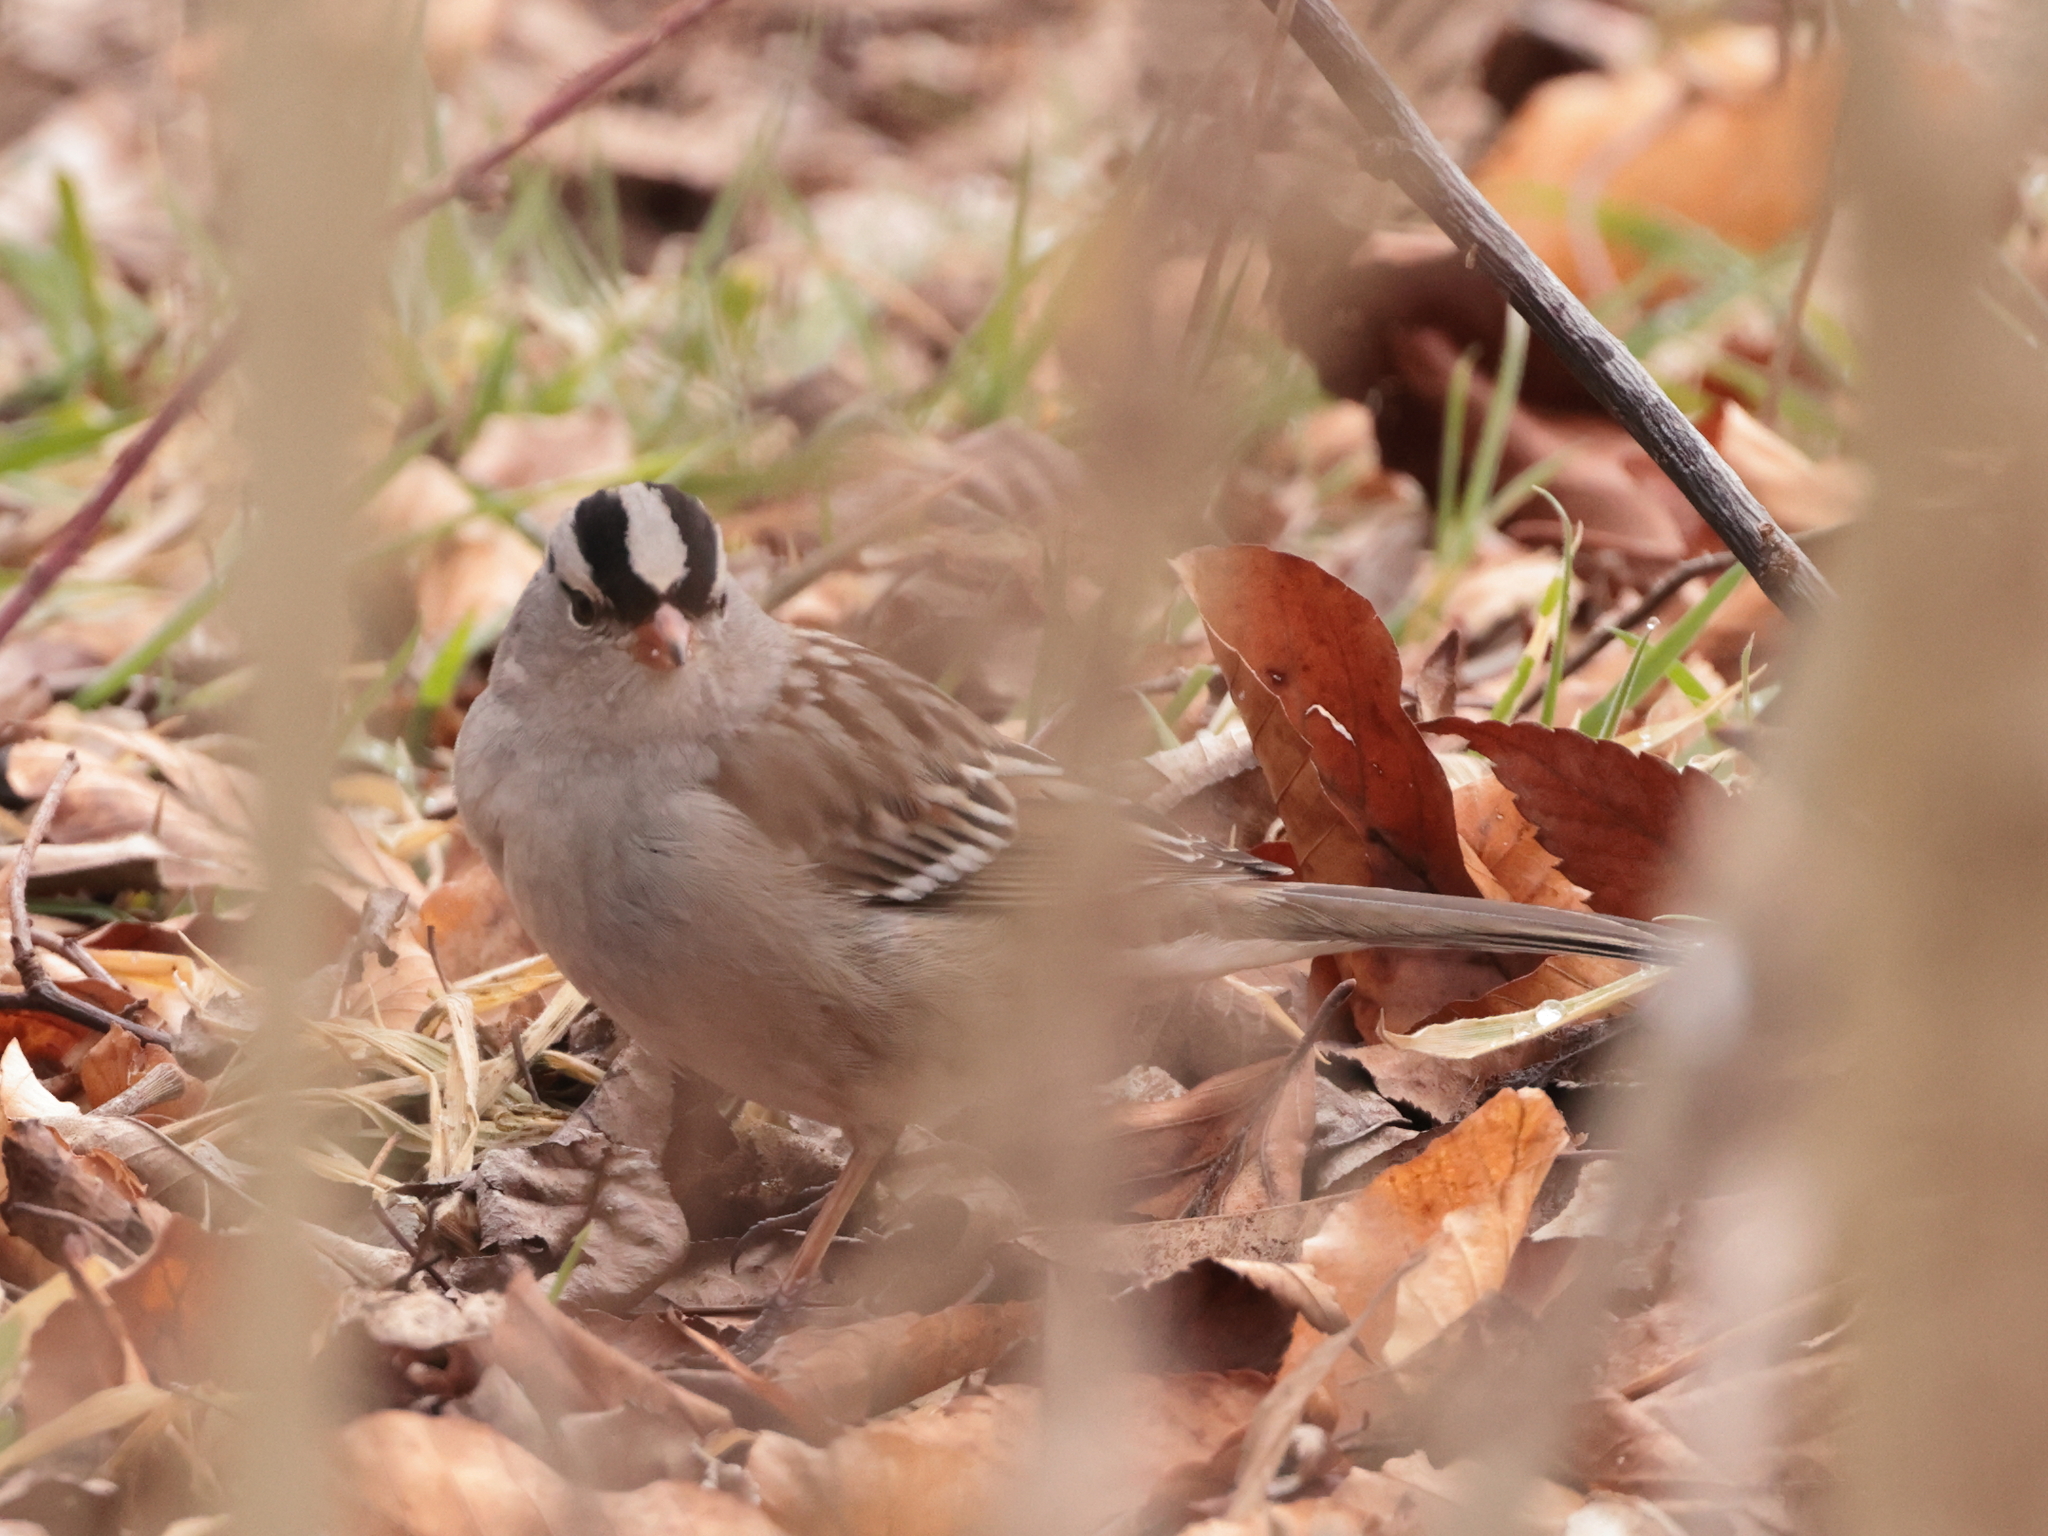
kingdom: Animalia
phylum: Chordata
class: Aves
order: Passeriformes
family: Passerellidae
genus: Zonotrichia
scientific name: Zonotrichia leucophrys
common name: White-crowned sparrow
